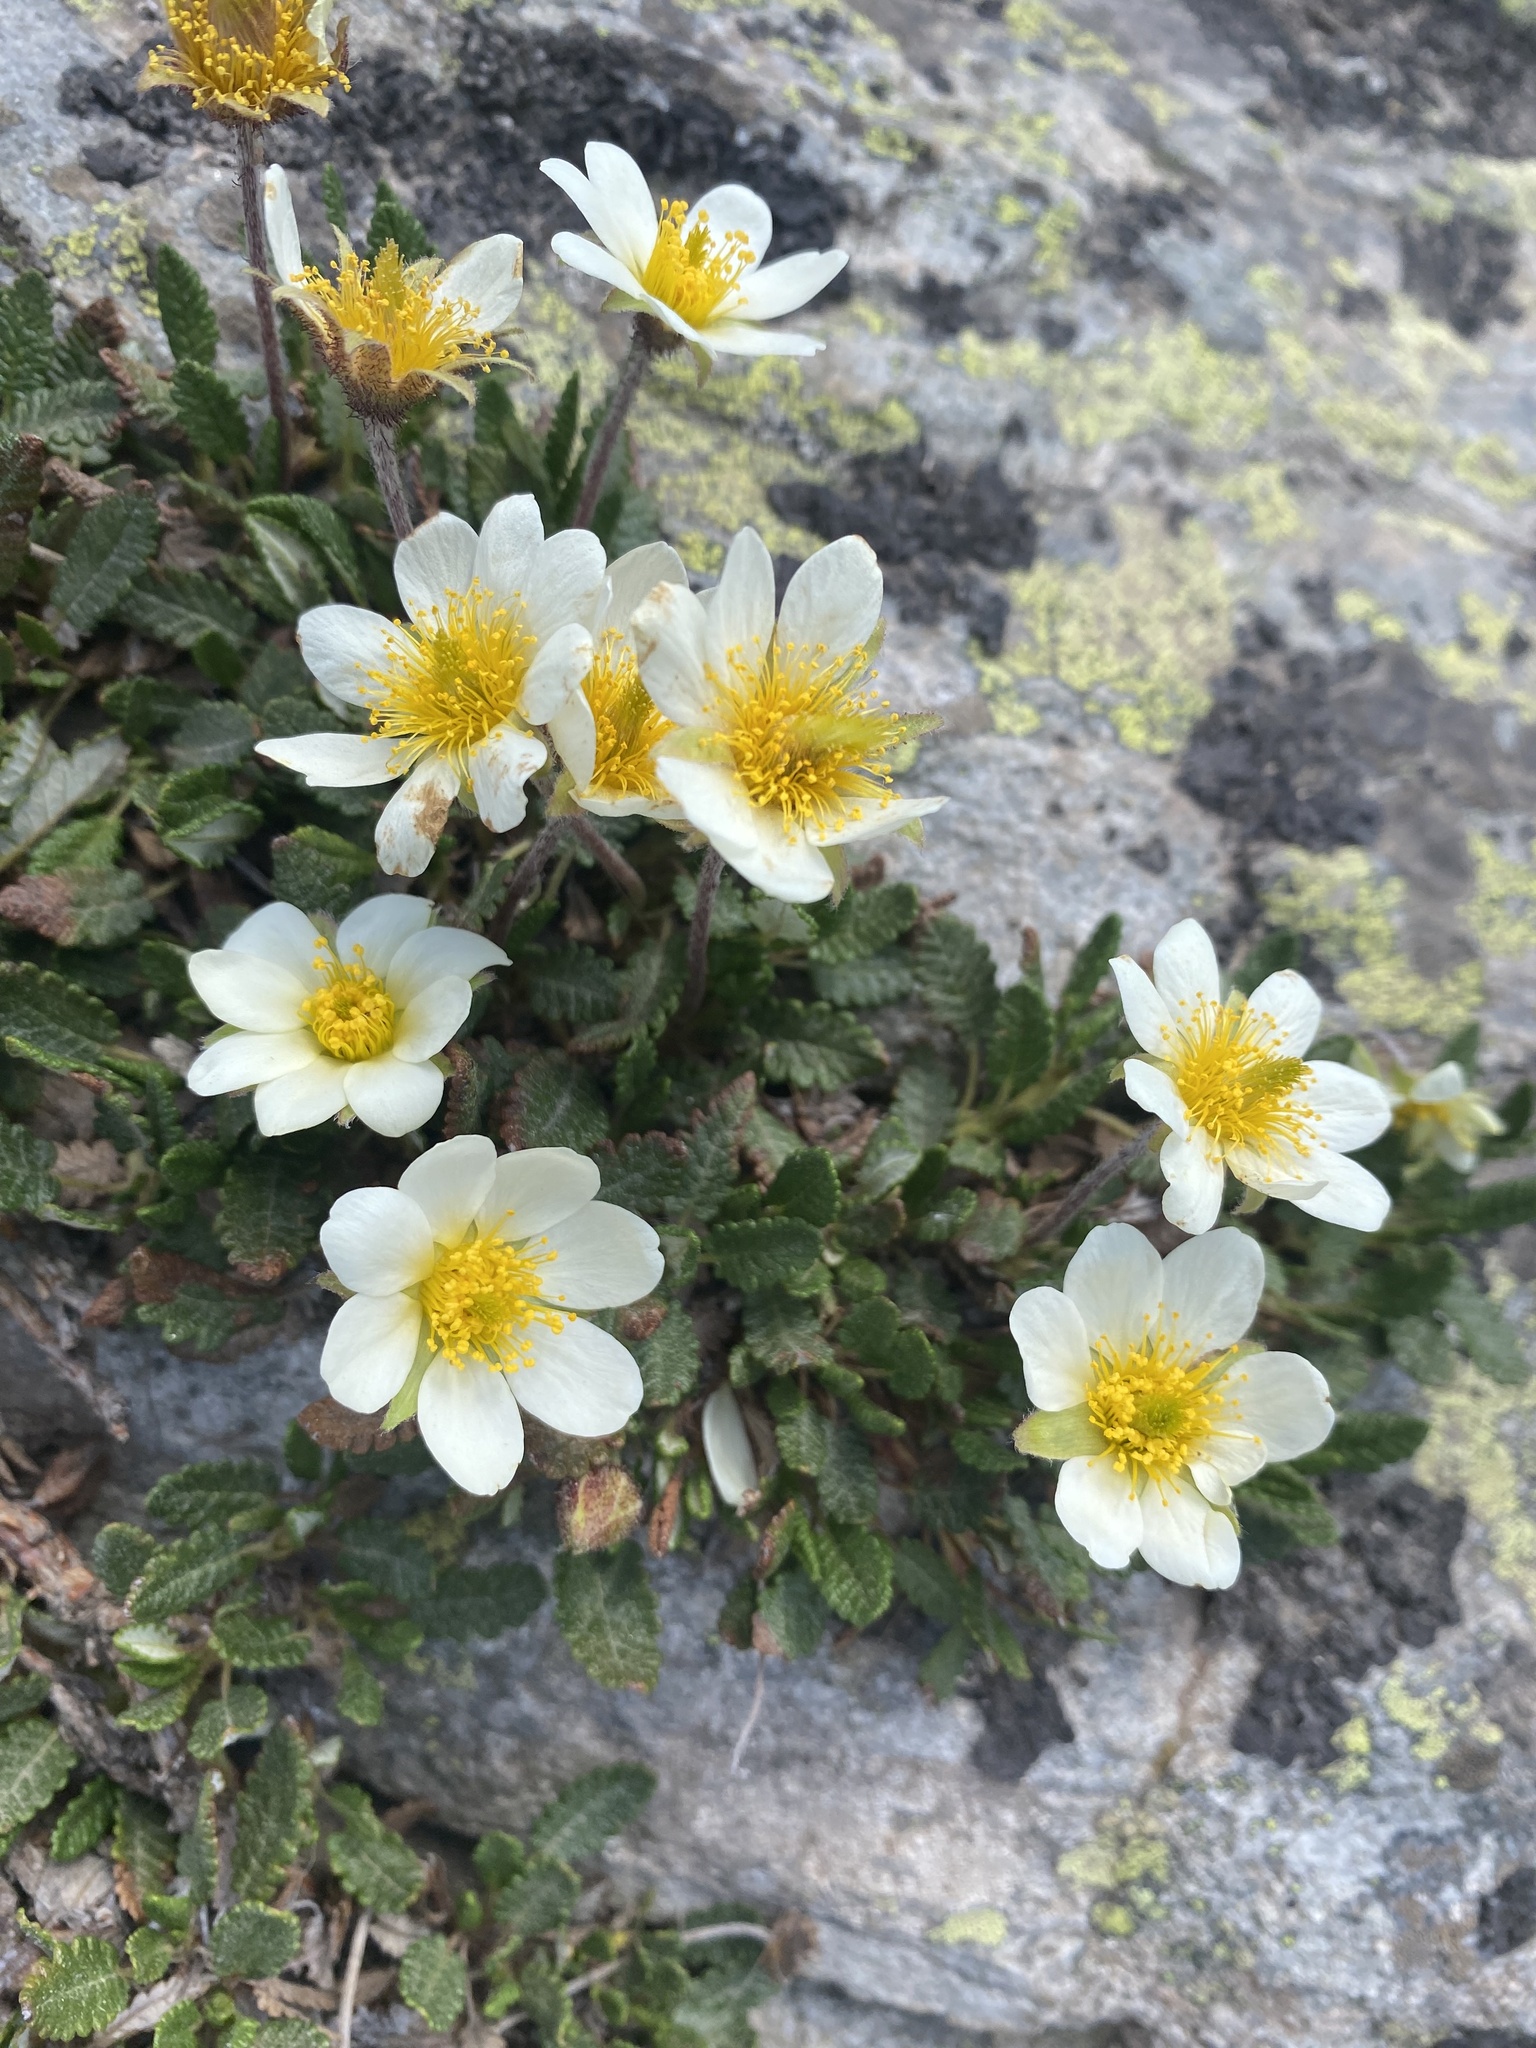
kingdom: Plantae
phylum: Tracheophyta
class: Magnoliopsida
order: Rosales
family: Rosaceae
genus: Dryas
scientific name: Dryas octopetala
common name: Eight-petal mountain-avens
